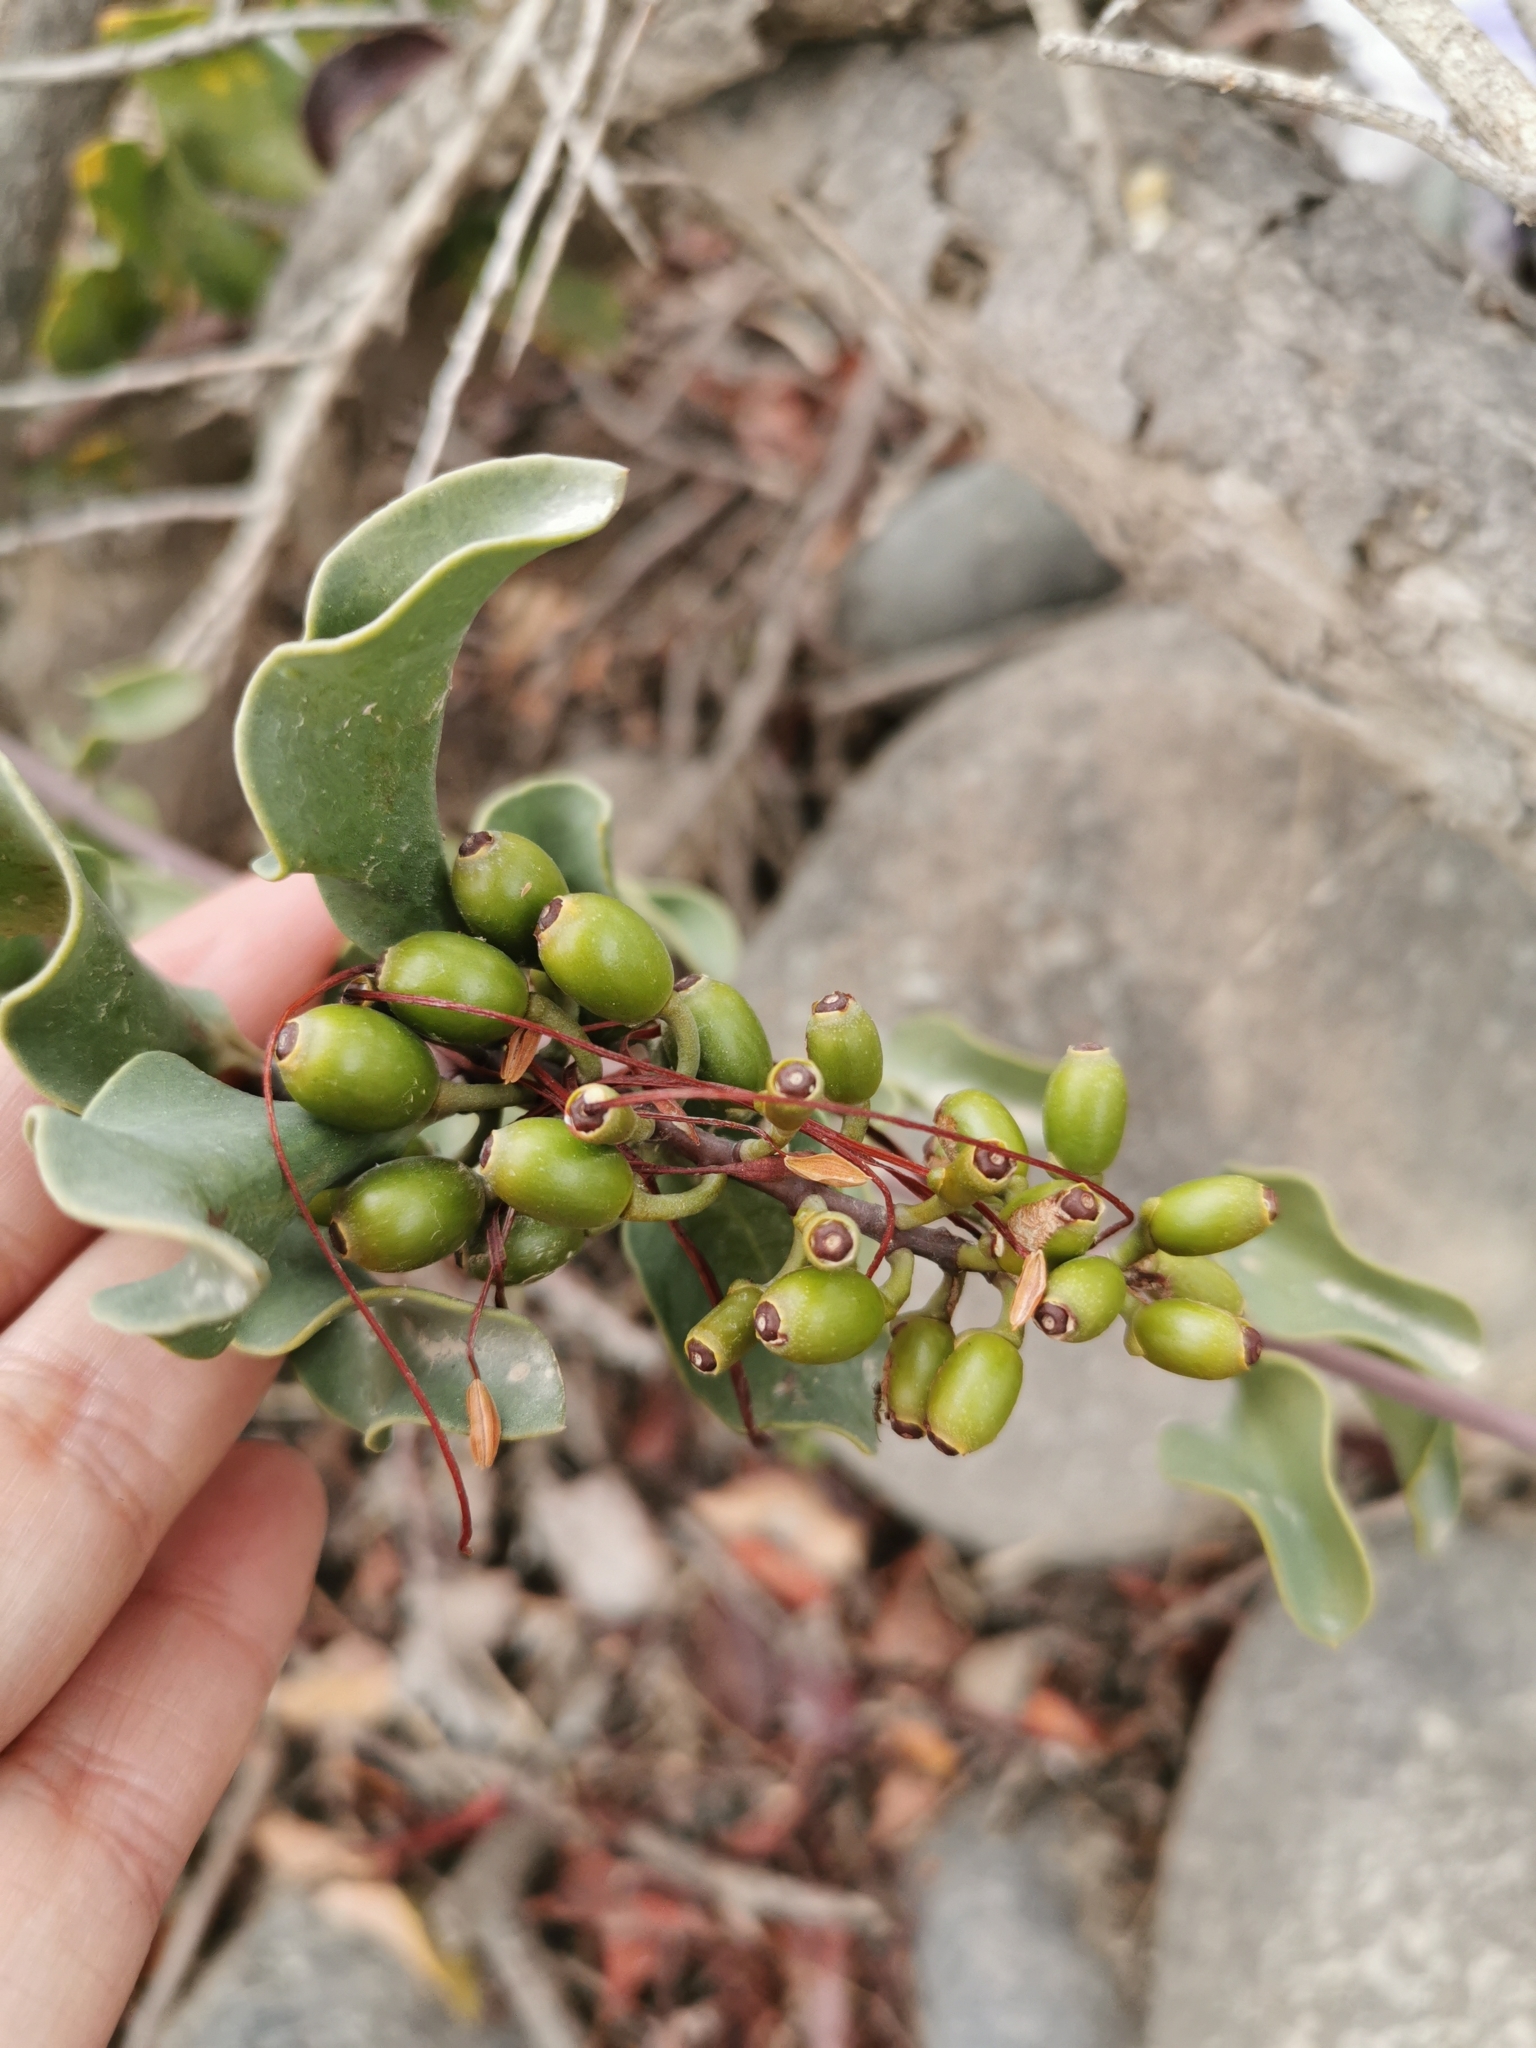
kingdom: Plantae
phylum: Tracheophyta
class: Magnoliopsida
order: Santalales
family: Loranthaceae
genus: Tristerix
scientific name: Tristerix corymbosus
